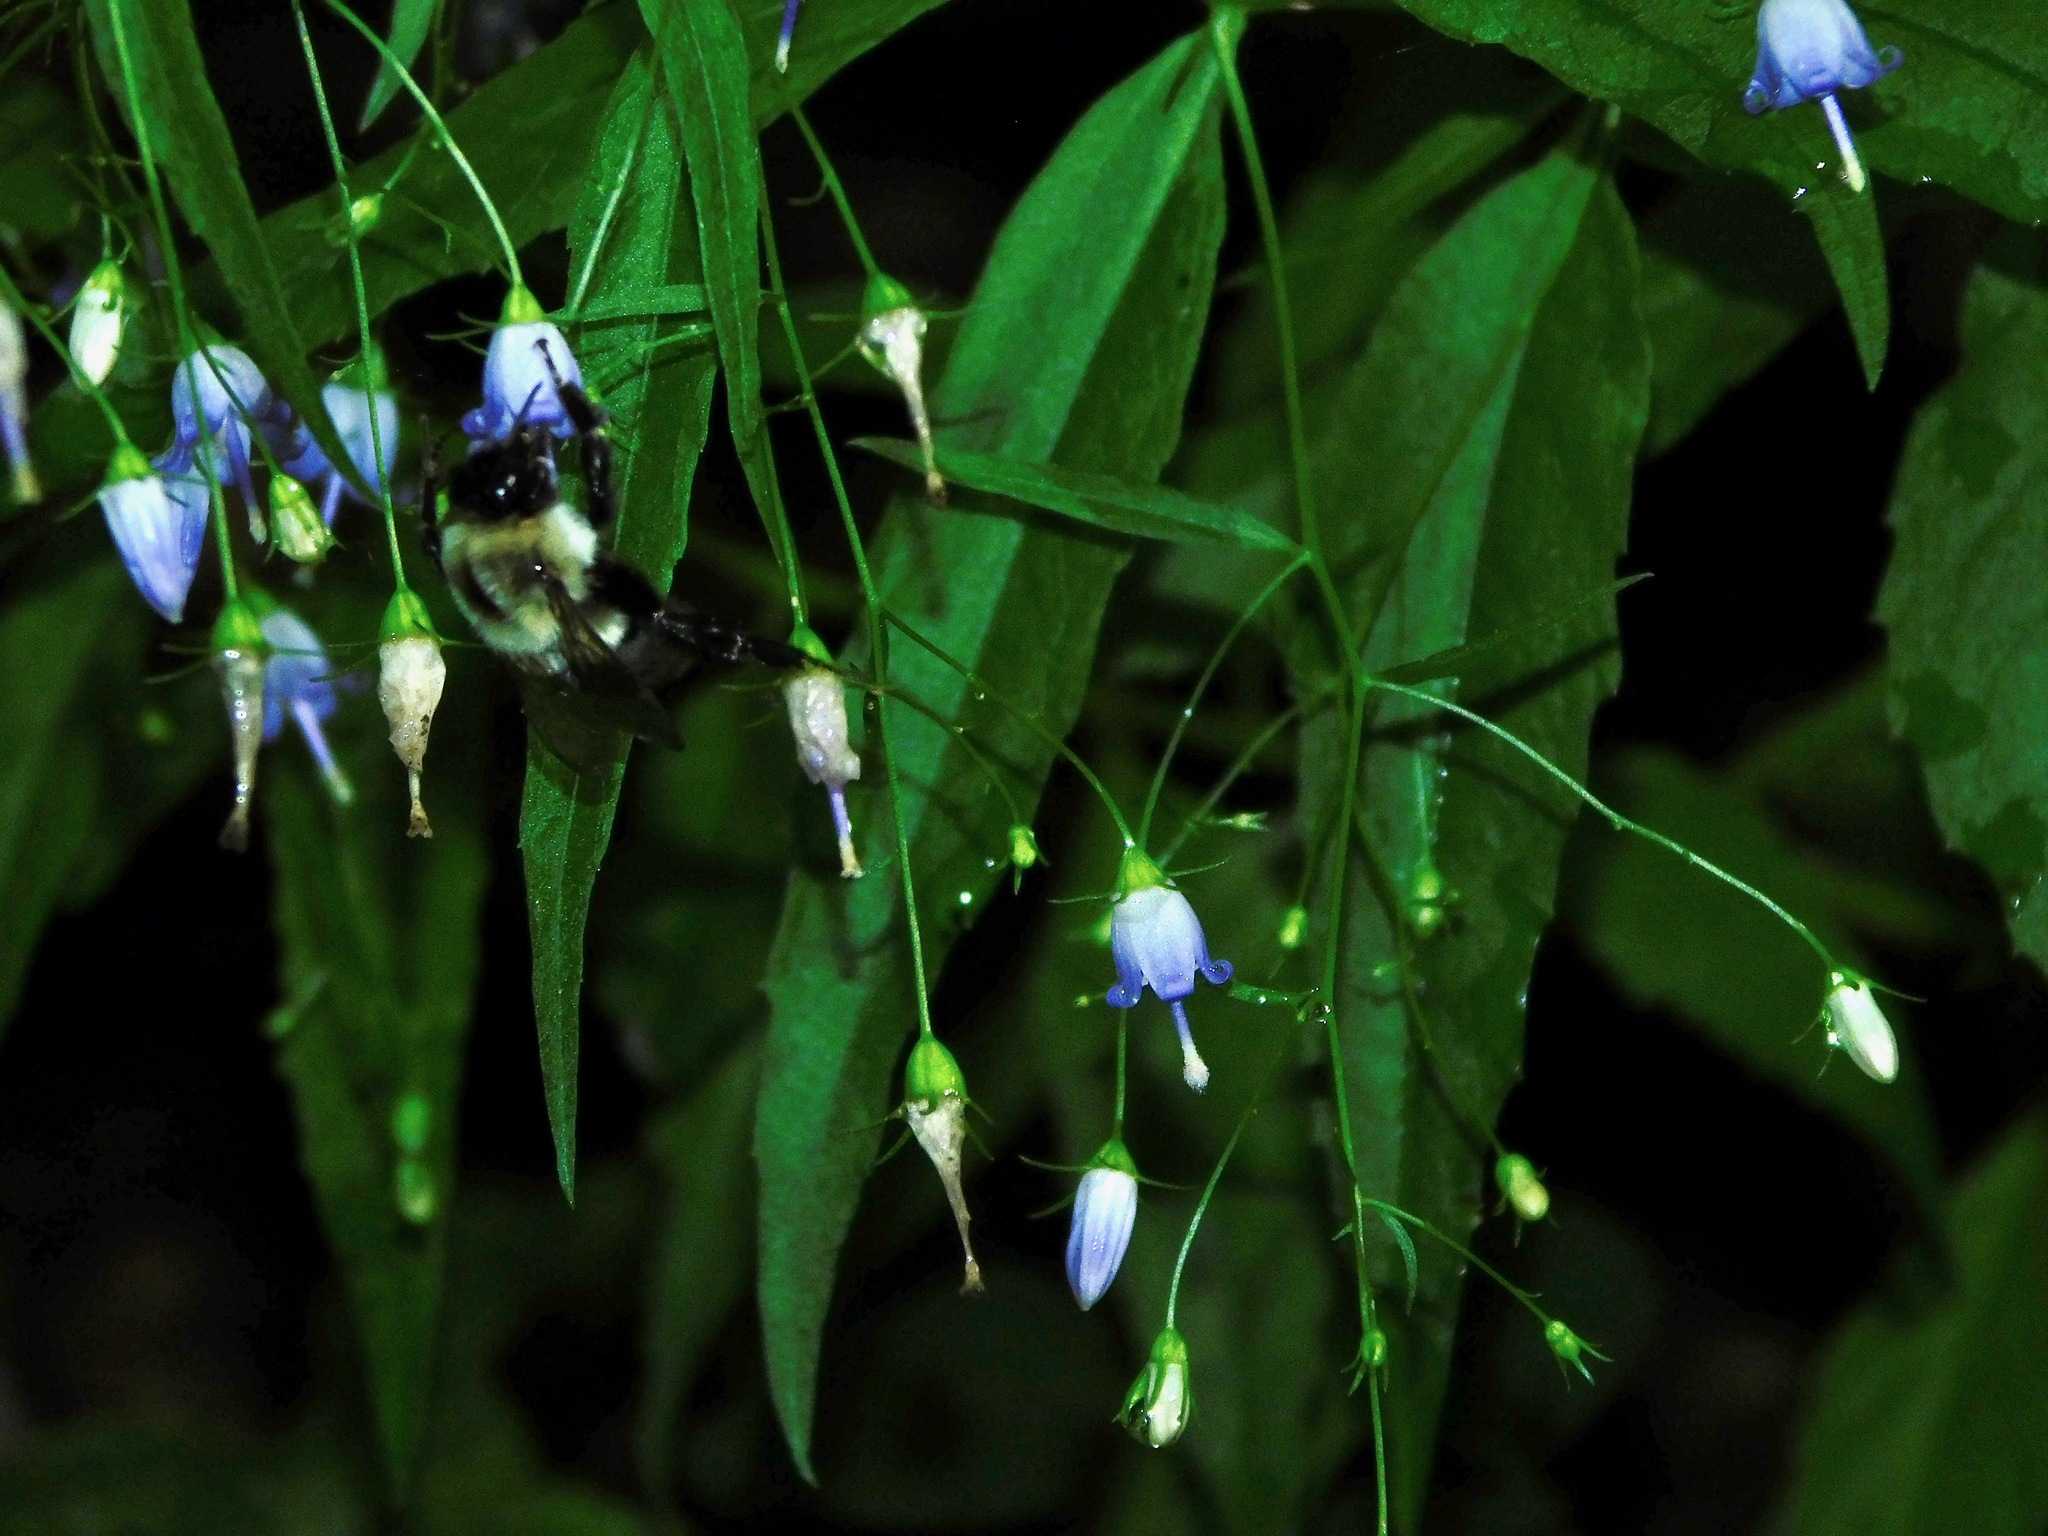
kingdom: Plantae
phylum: Tracheophyta
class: Magnoliopsida
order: Asterales
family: Campanulaceae
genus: Campanula
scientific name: Campanula divaricata
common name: Appalachian bellflower
